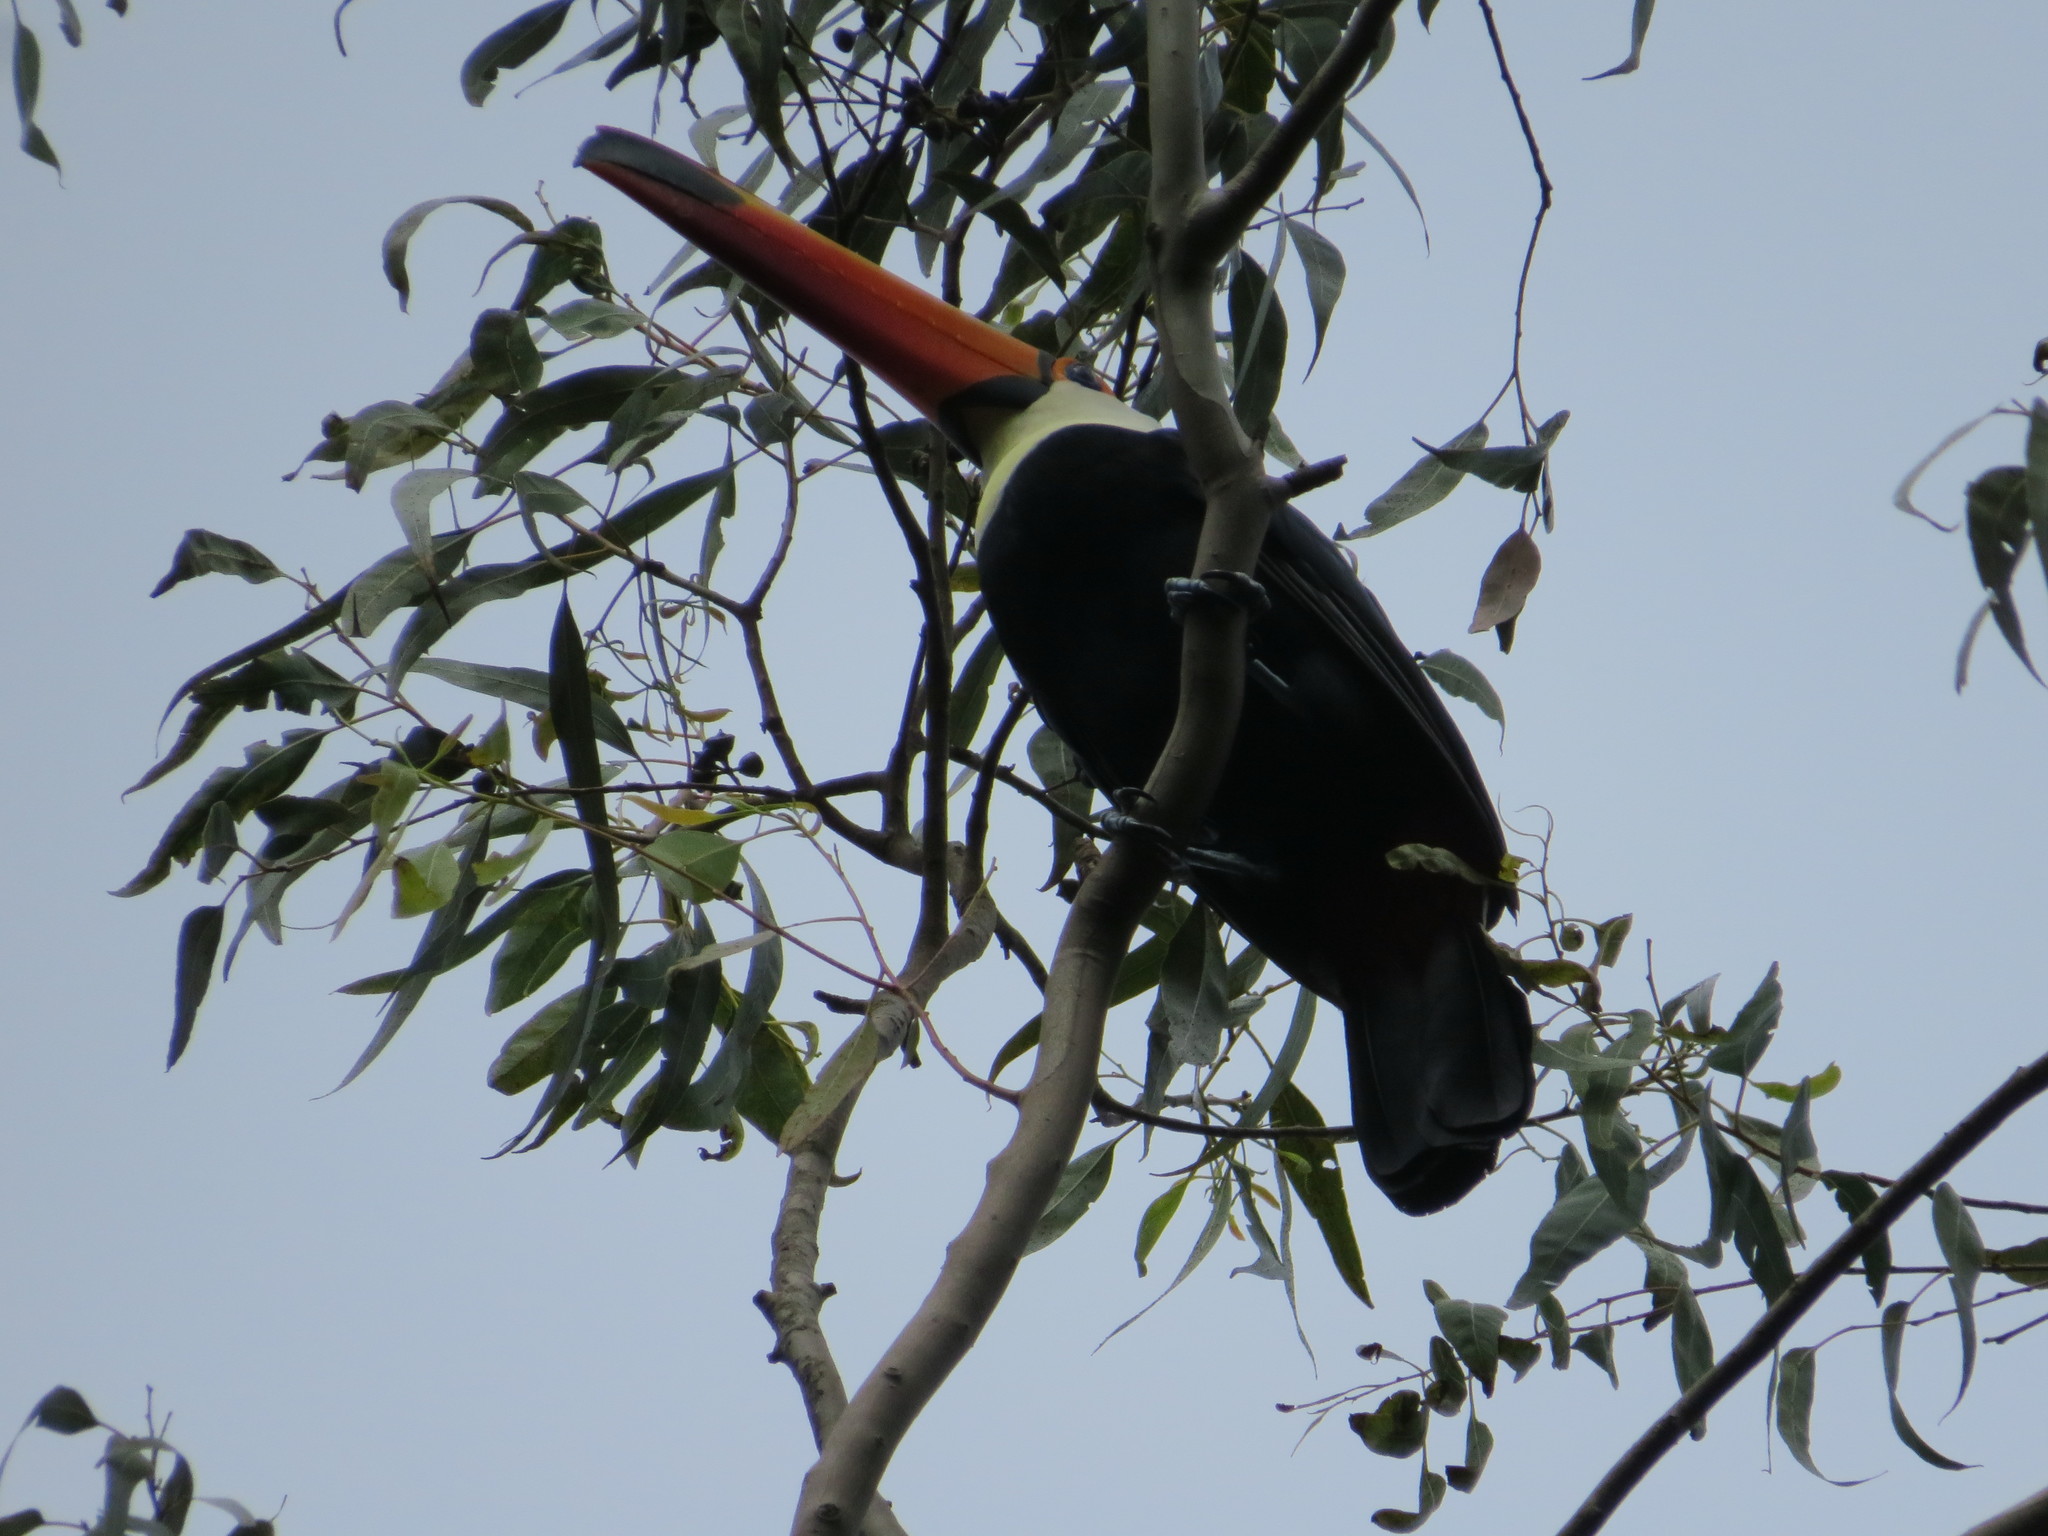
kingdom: Animalia
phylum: Chordata
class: Aves
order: Piciformes
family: Ramphastidae
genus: Ramphastos
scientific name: Ramphastos toco
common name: Toco toucan
